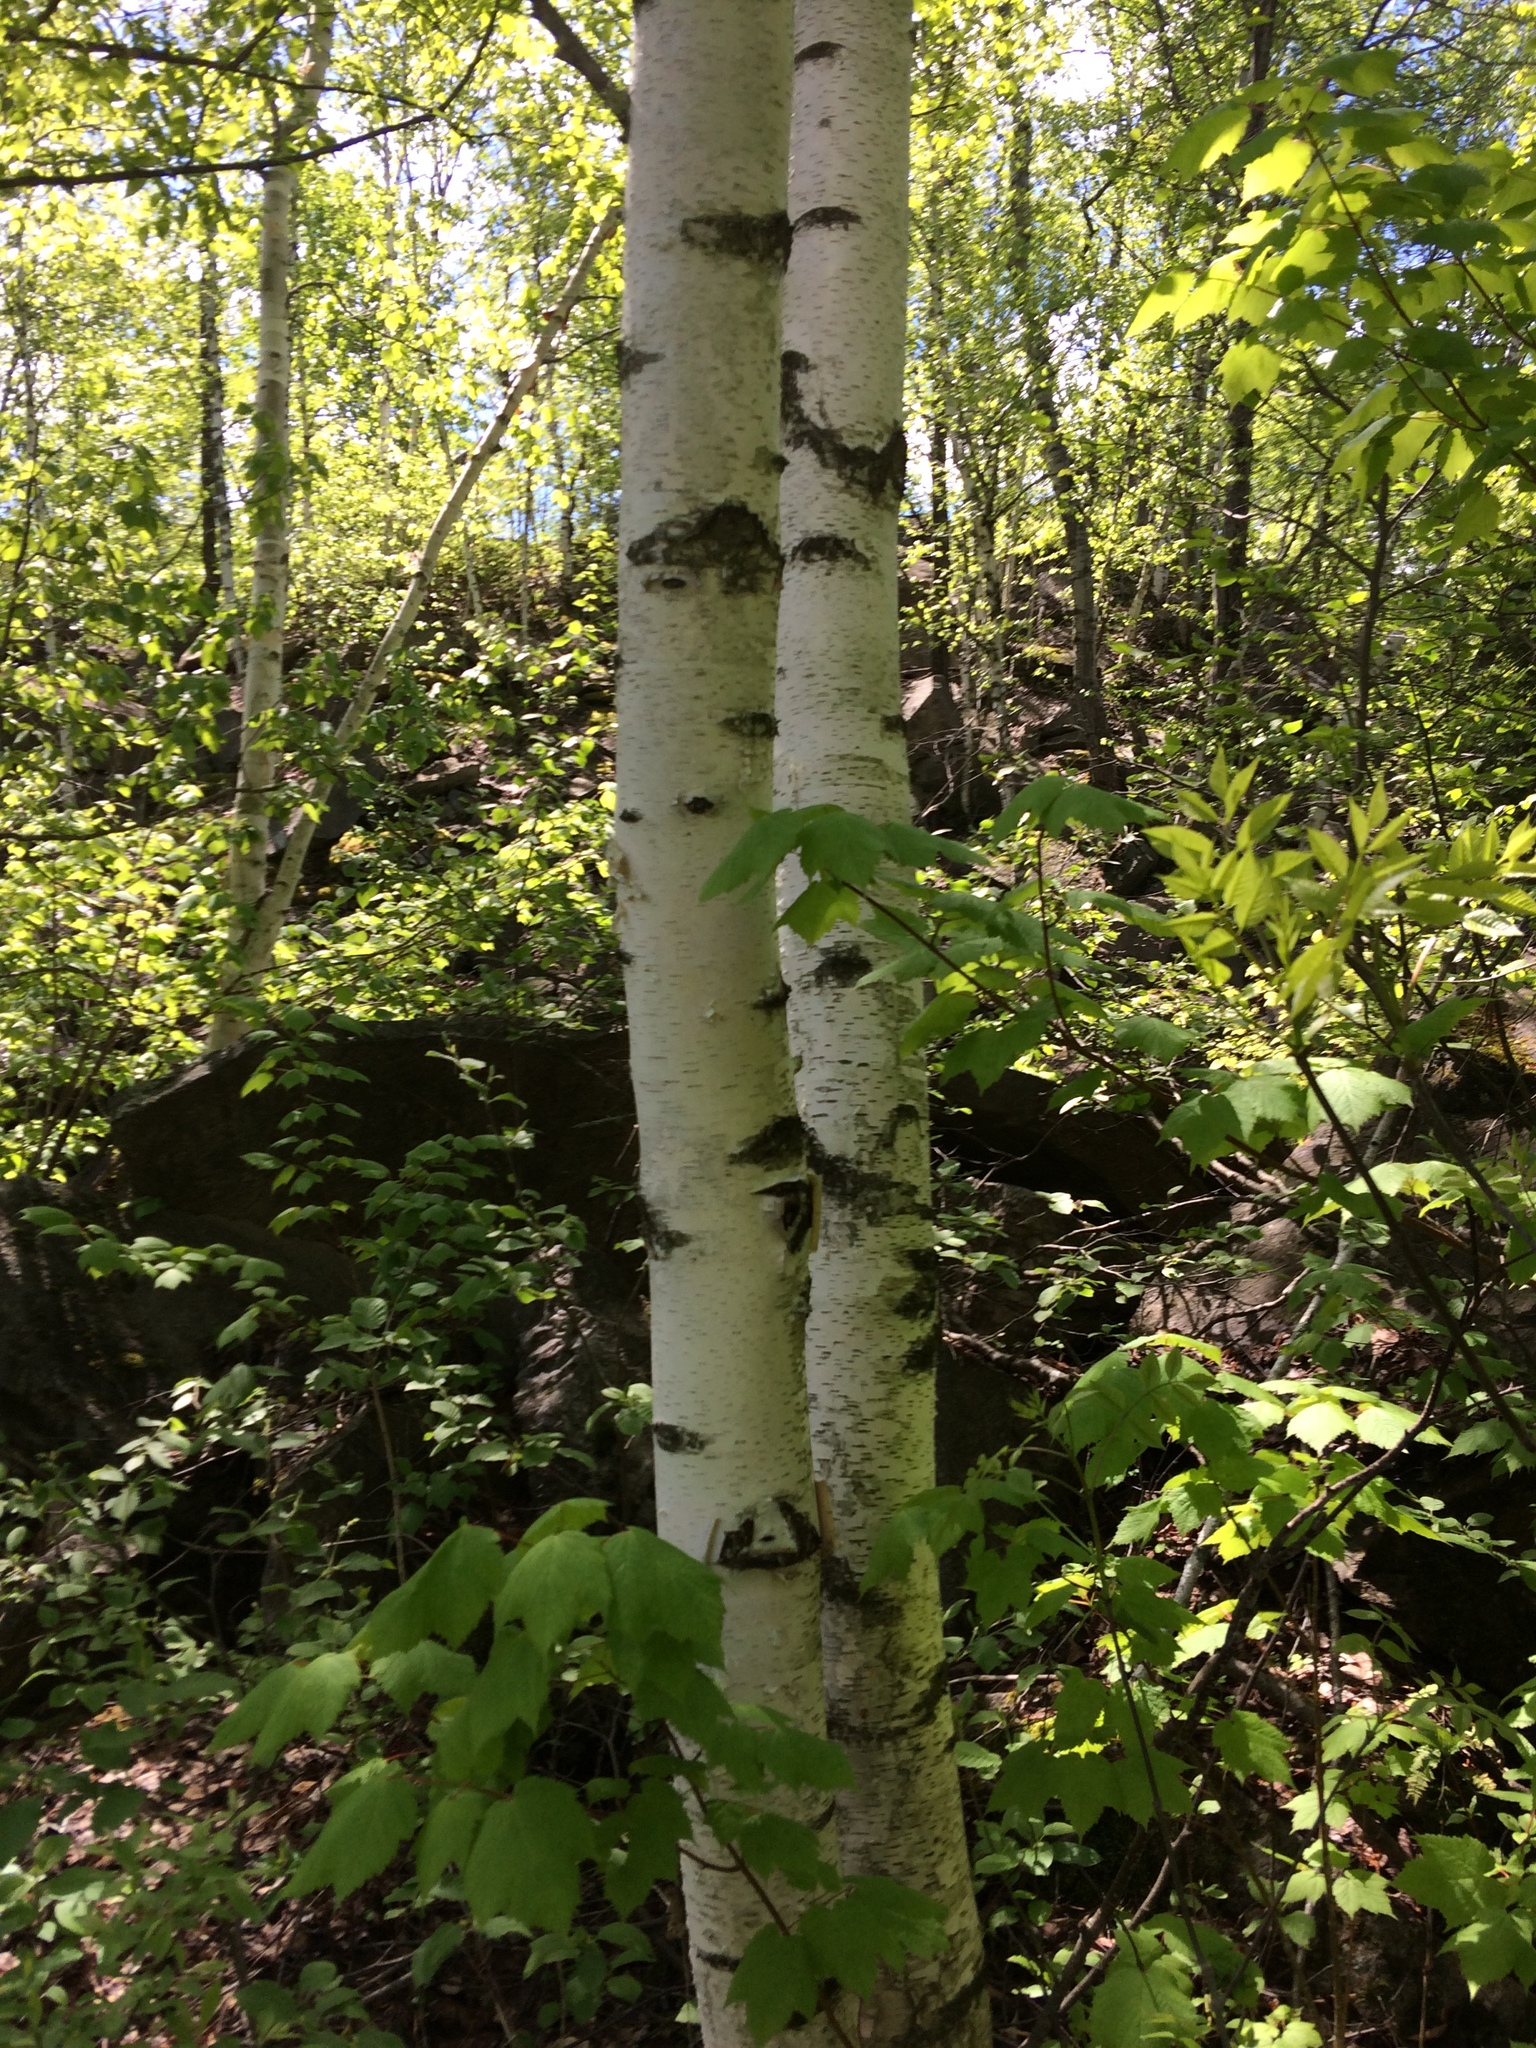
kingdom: Plantae
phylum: Tracheophyta
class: Magnoliopsida
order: Fagales
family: Betulaceae
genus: Betula
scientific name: Betula papyrifera
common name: Paper birch
